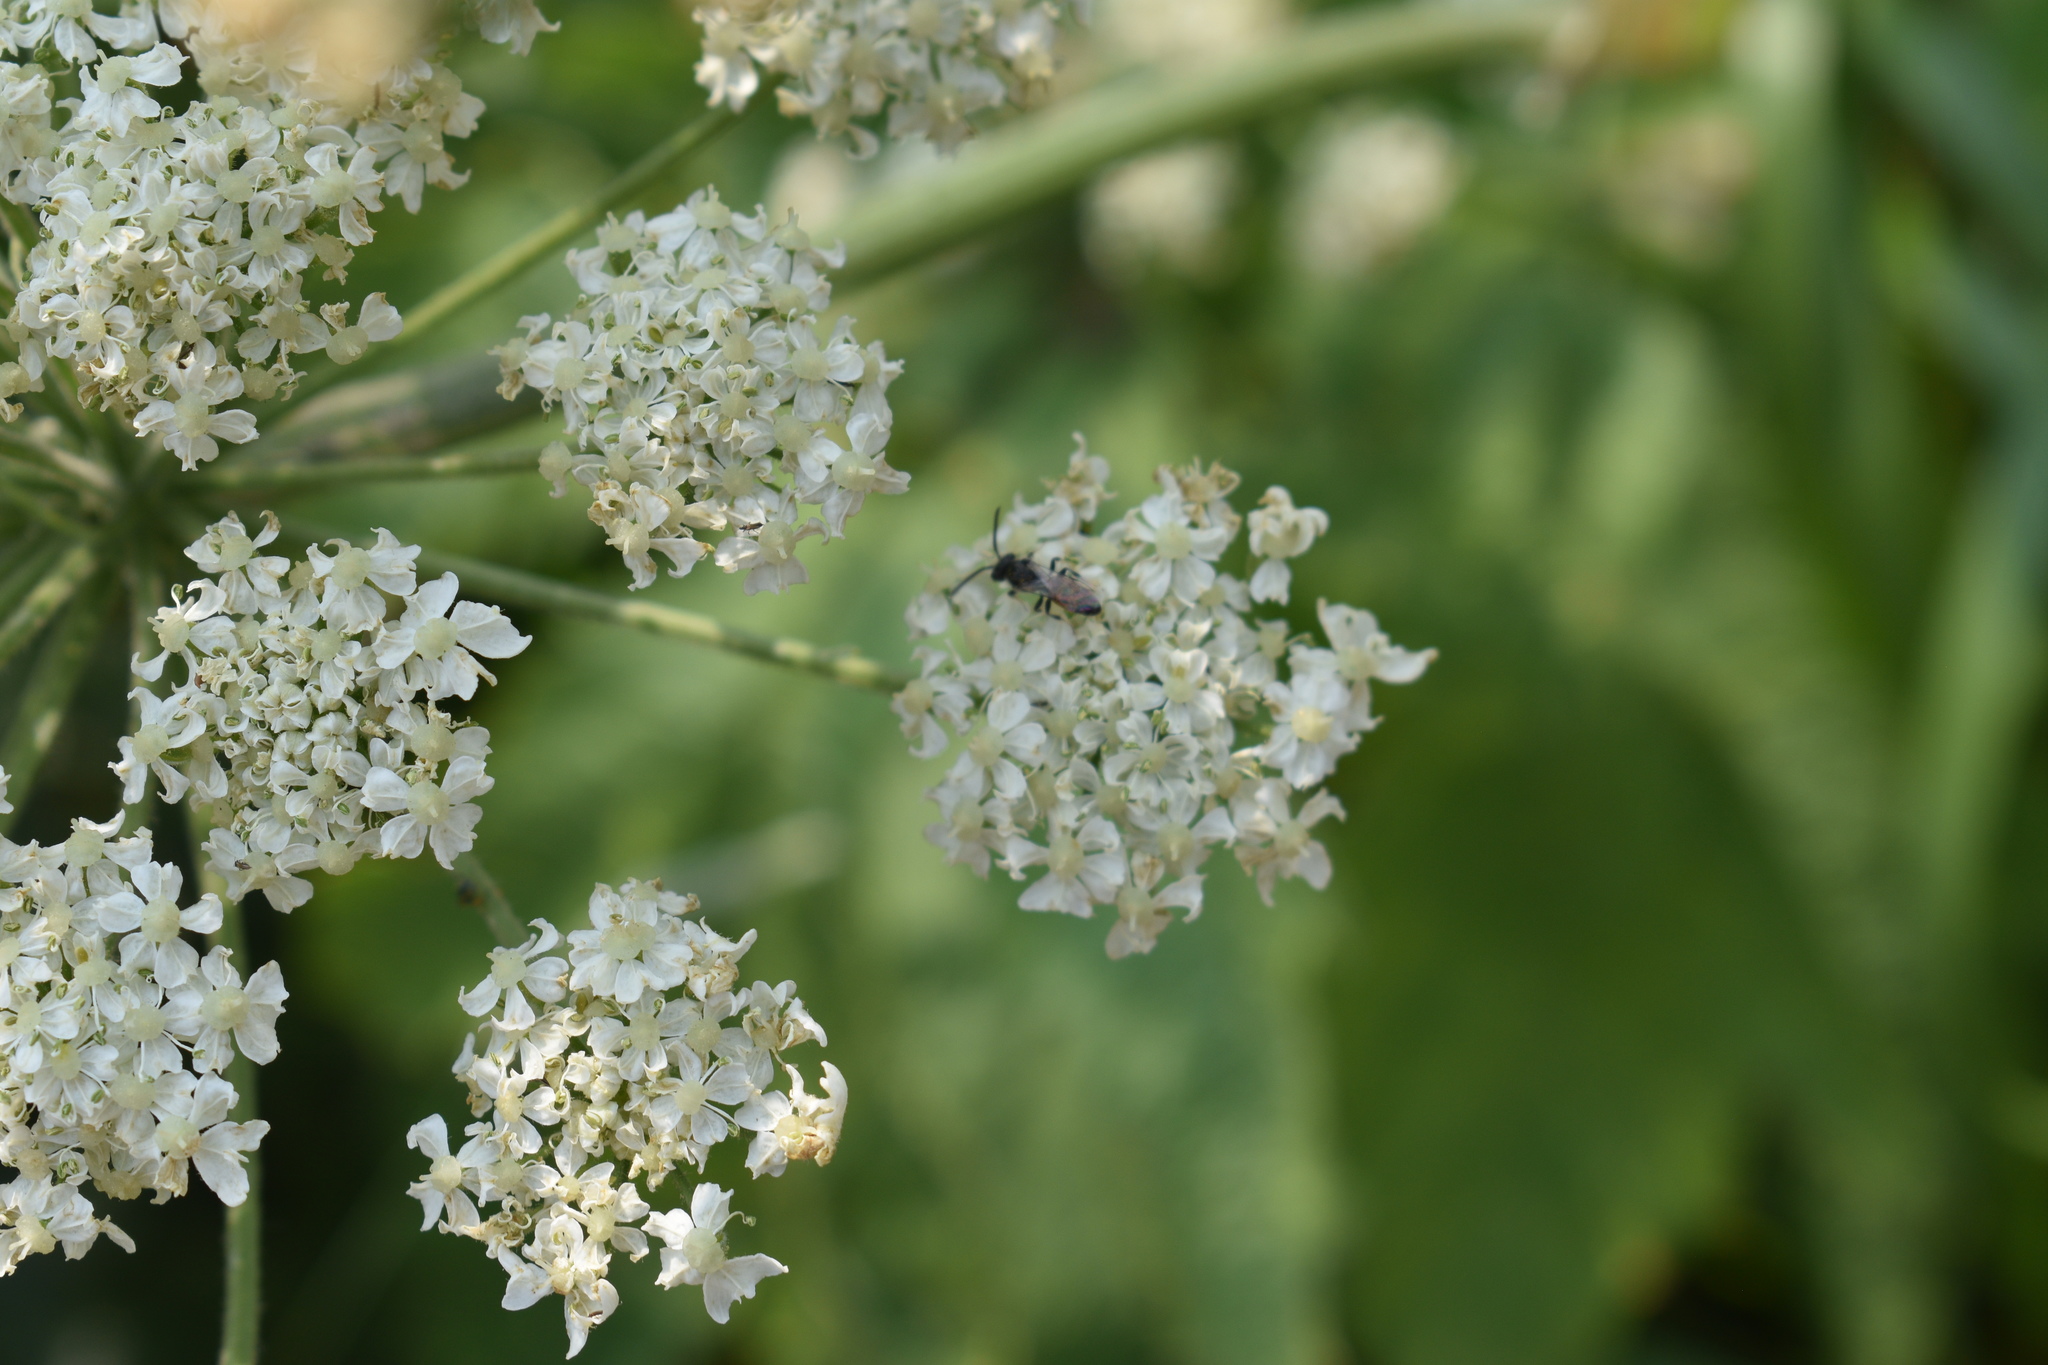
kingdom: Plantae
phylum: Tracheophyta
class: Magnoliopsida
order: Apiales
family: Apiaceae
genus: Heracleum
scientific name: Heracleum maximum
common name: American cow parsnip
